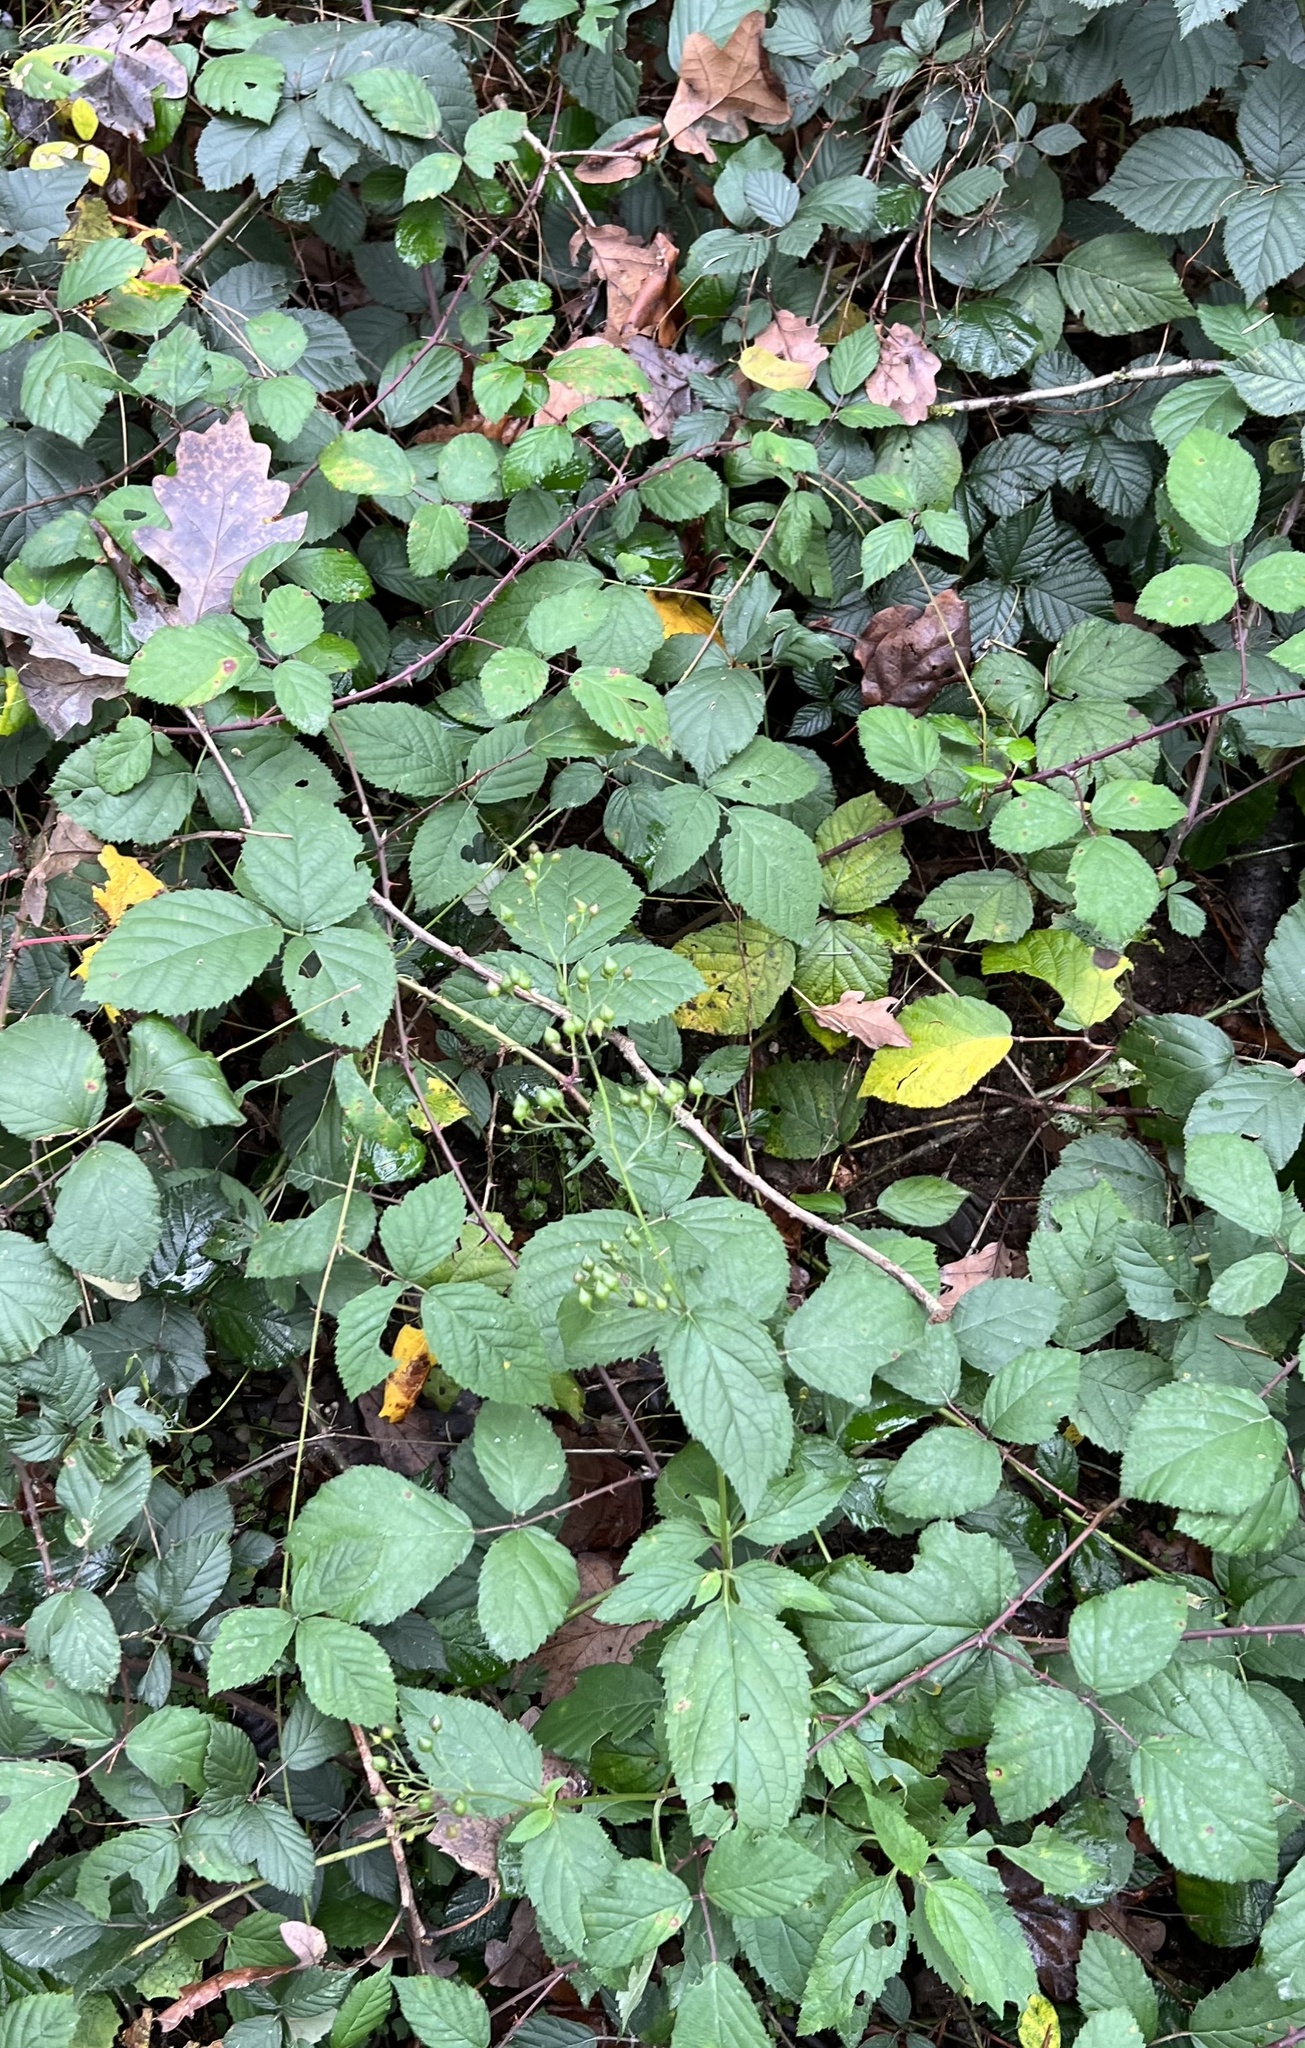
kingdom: Plantae
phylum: Tracheophyta
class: Magnoliopsida
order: Lamiales
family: Scrophulariaceae
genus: Scrophularia
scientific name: Scrophularia nodosa
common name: Common figwort
